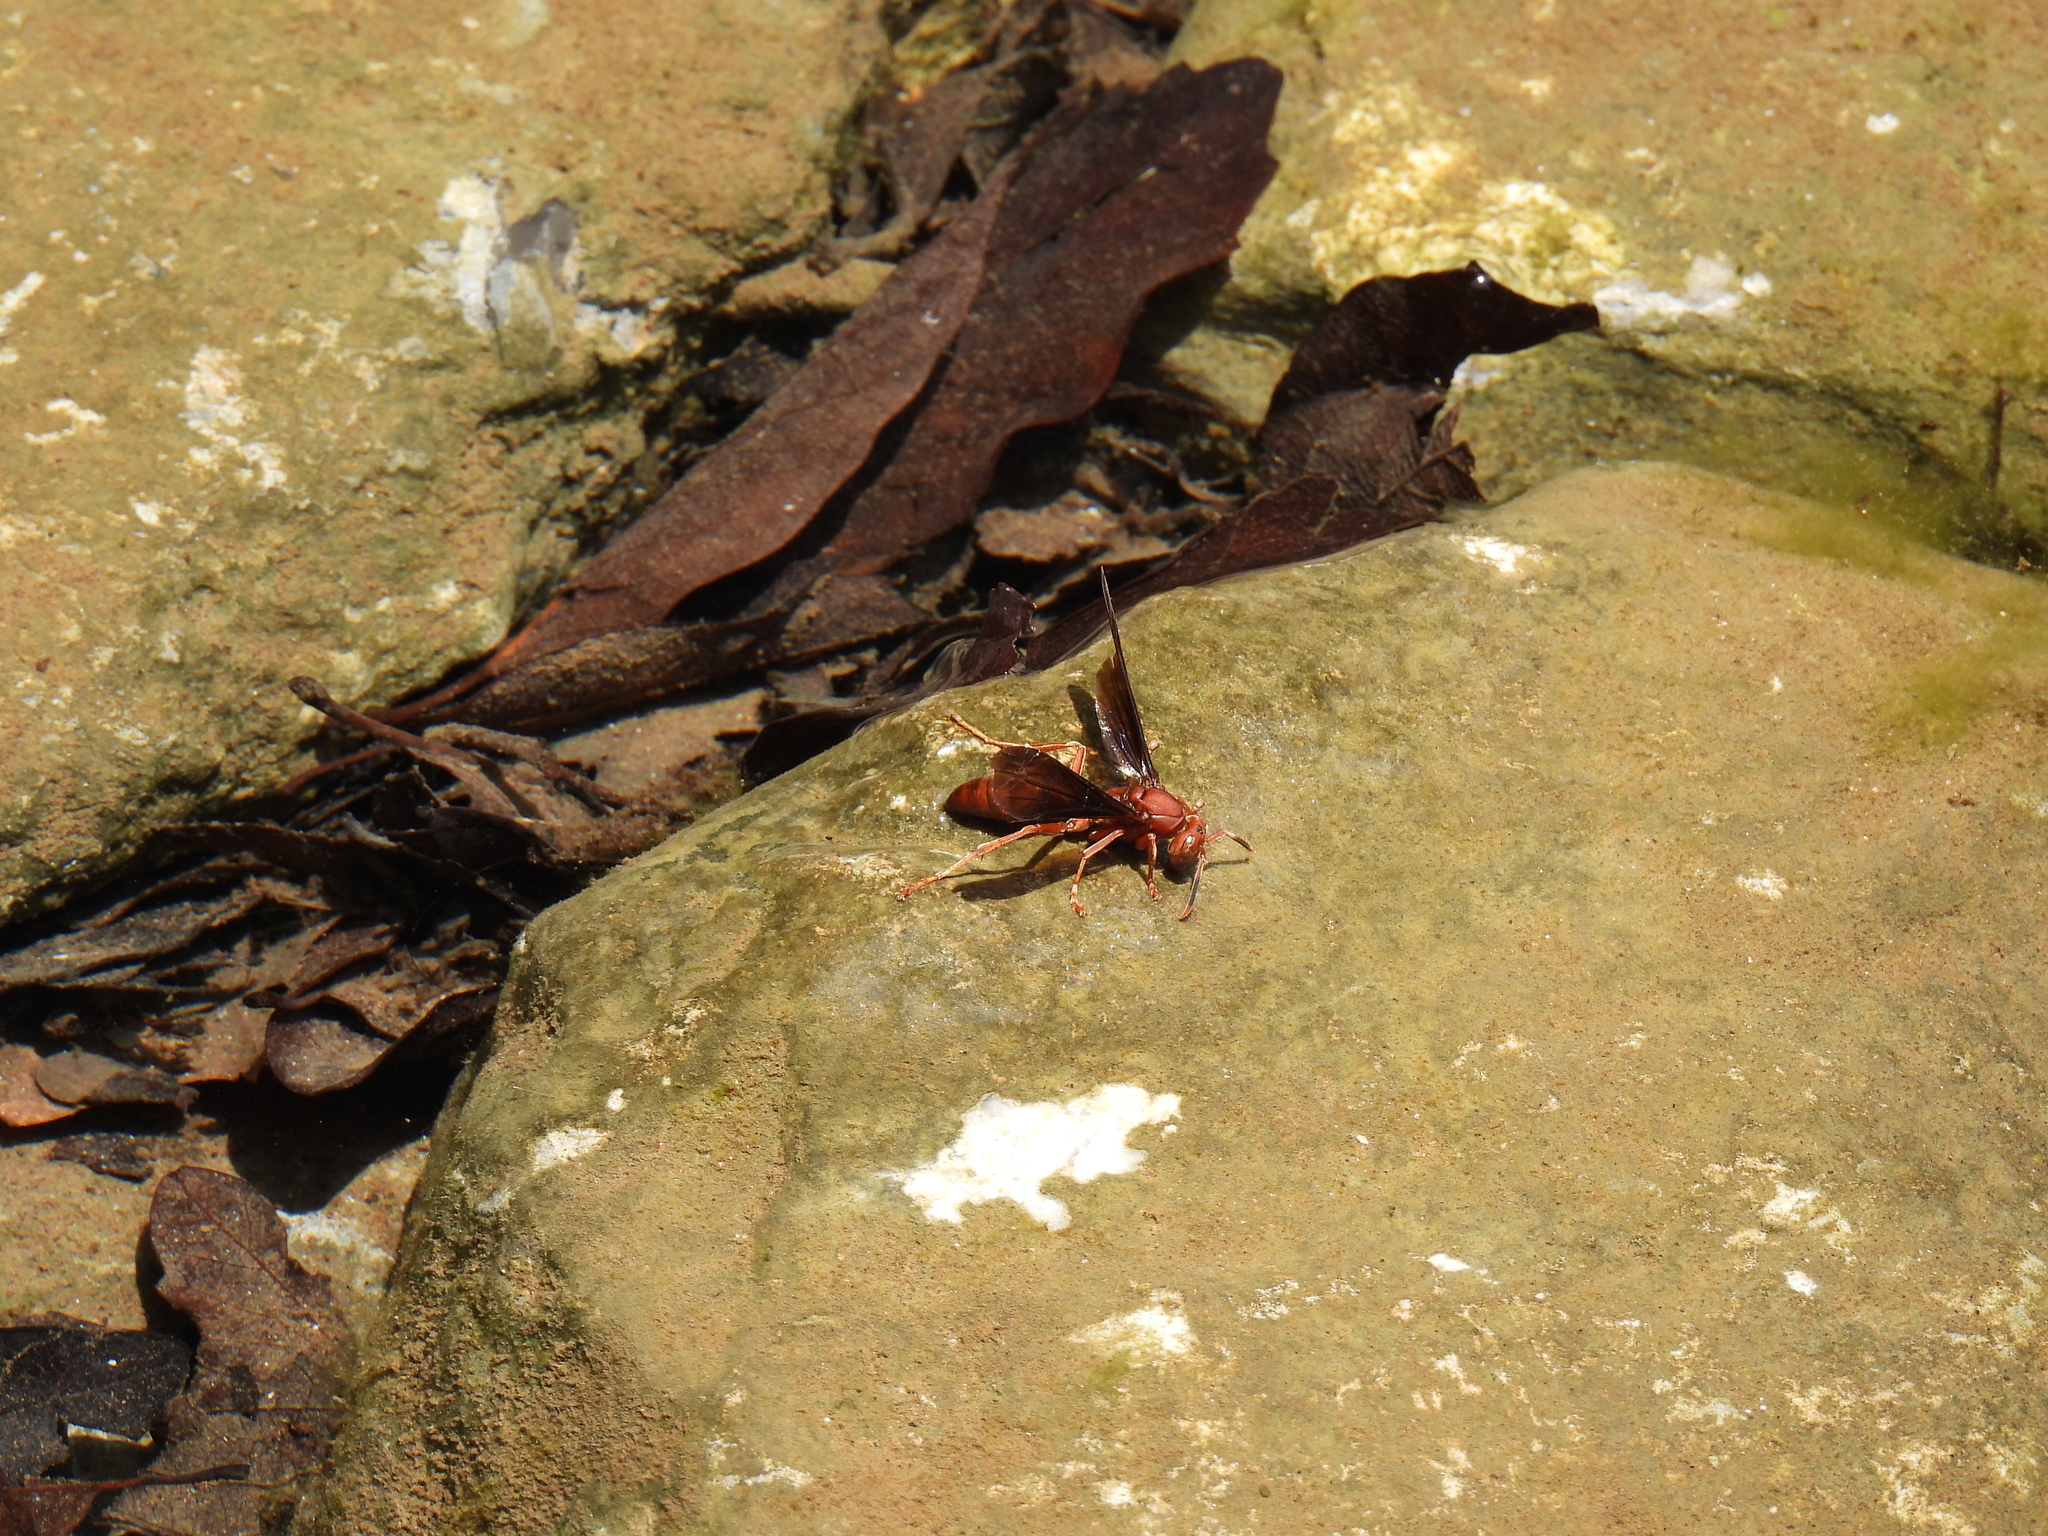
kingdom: Animalia
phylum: Arthropoda
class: Insecta
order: Hymenoptera
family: Eumenidae
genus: Polistes
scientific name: Polistes canadensis
